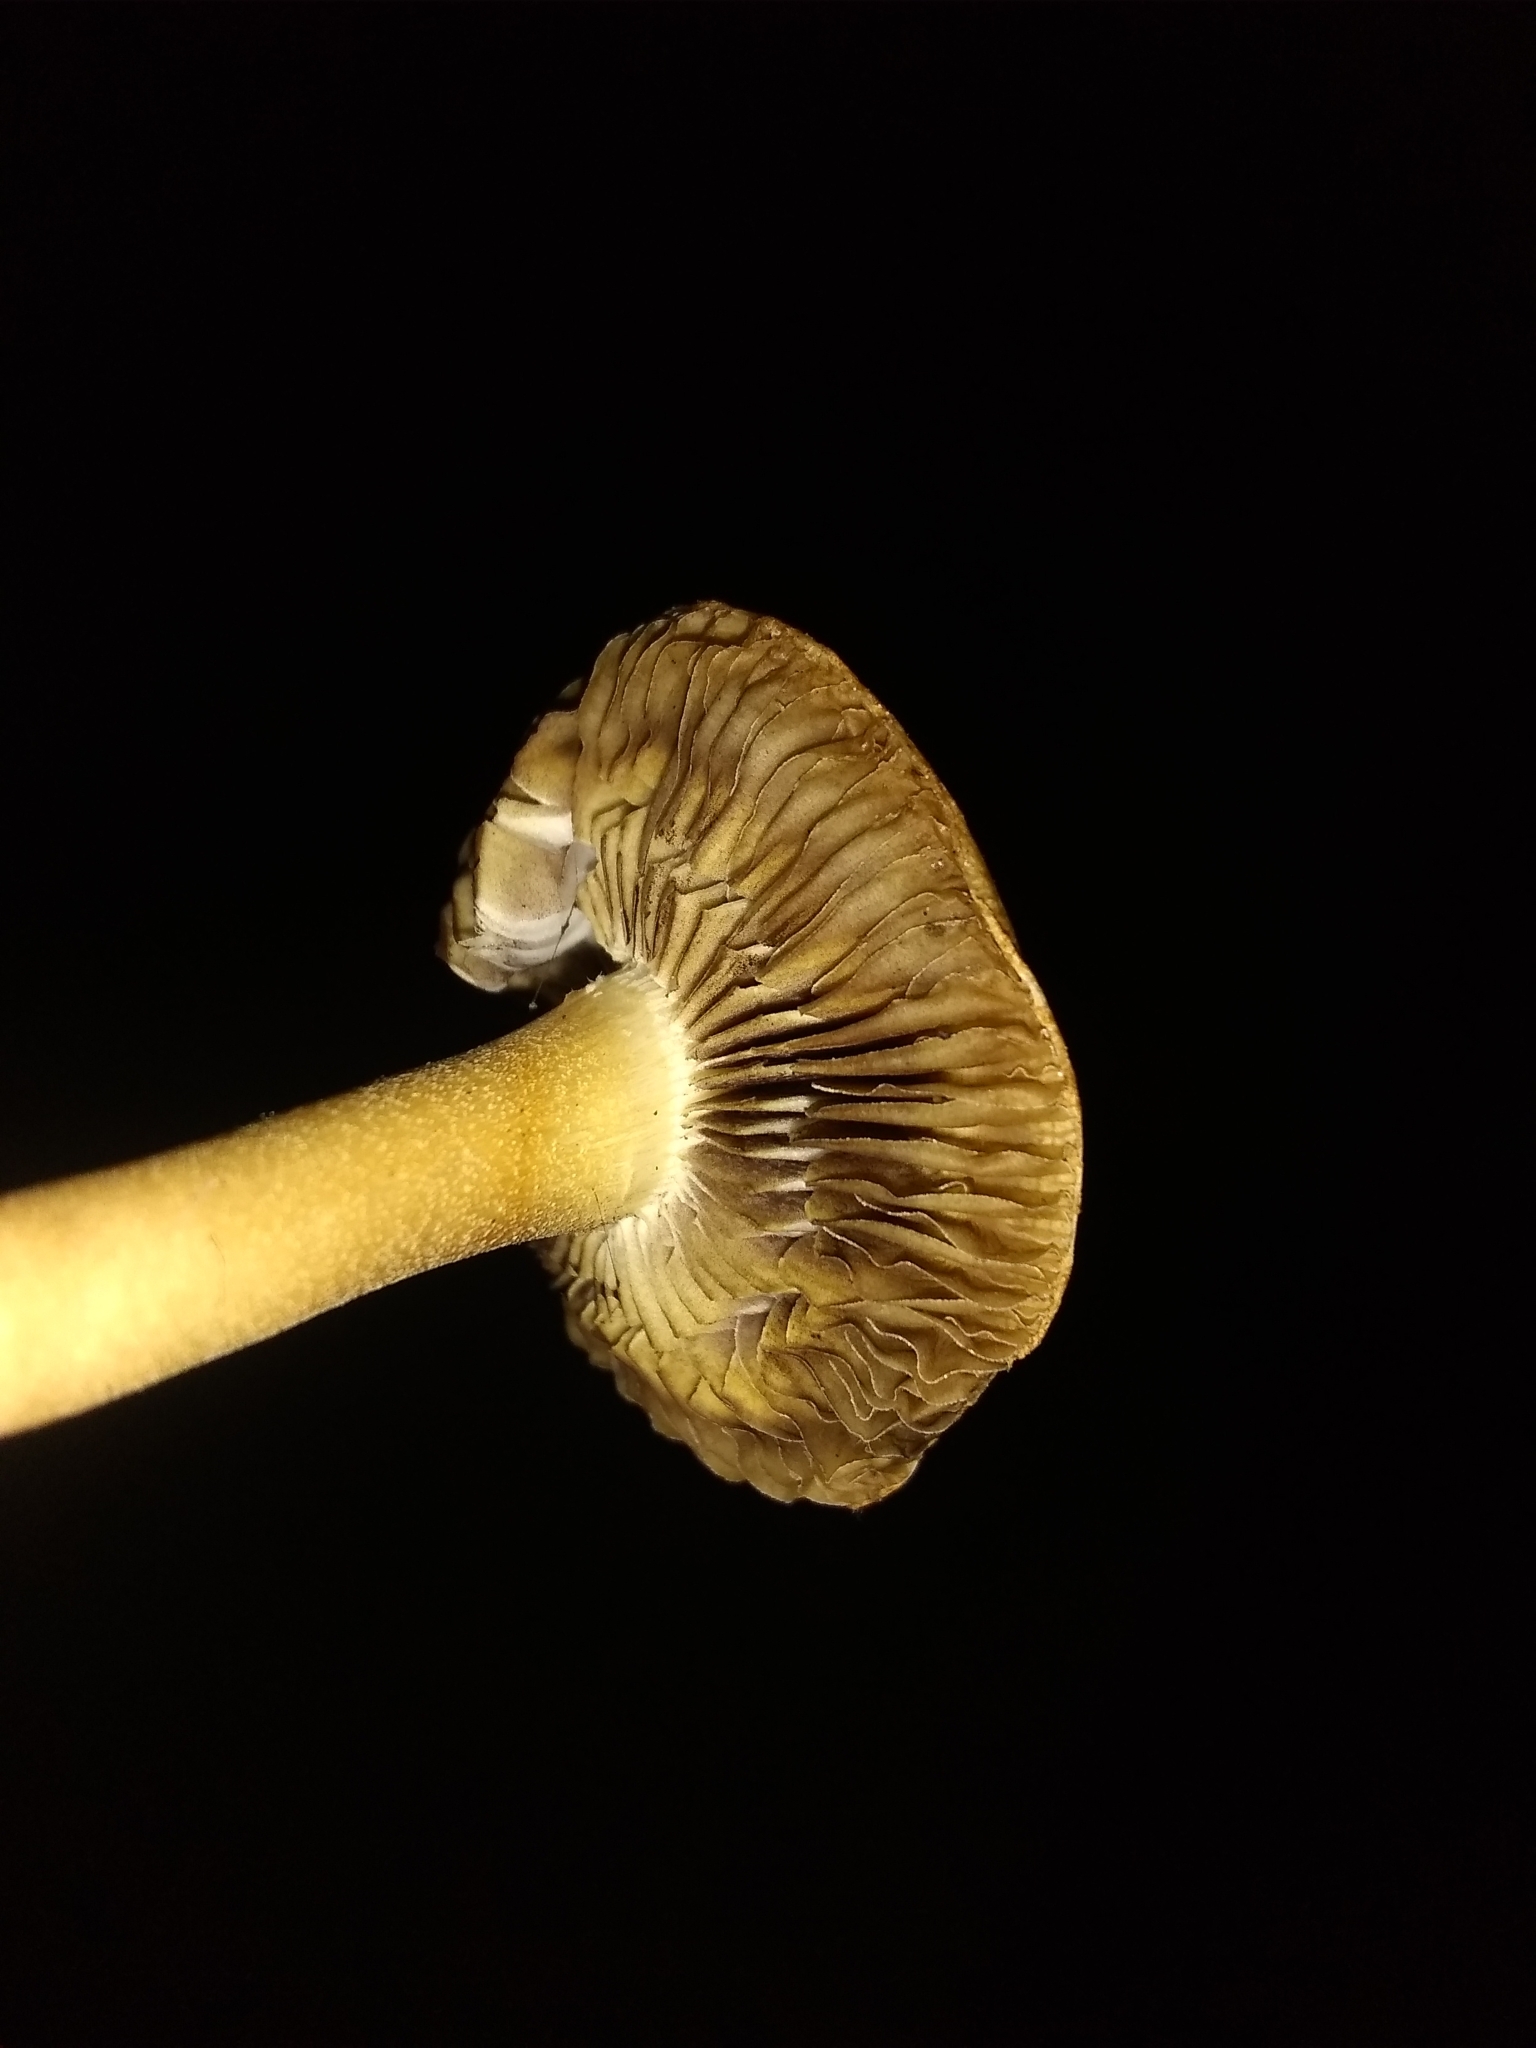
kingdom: Fungi
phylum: Basidiomycota
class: Agaricomycetes
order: Agaricales
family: Strophariaceae
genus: Leratiomyces
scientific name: Leratiomyces percevalii
